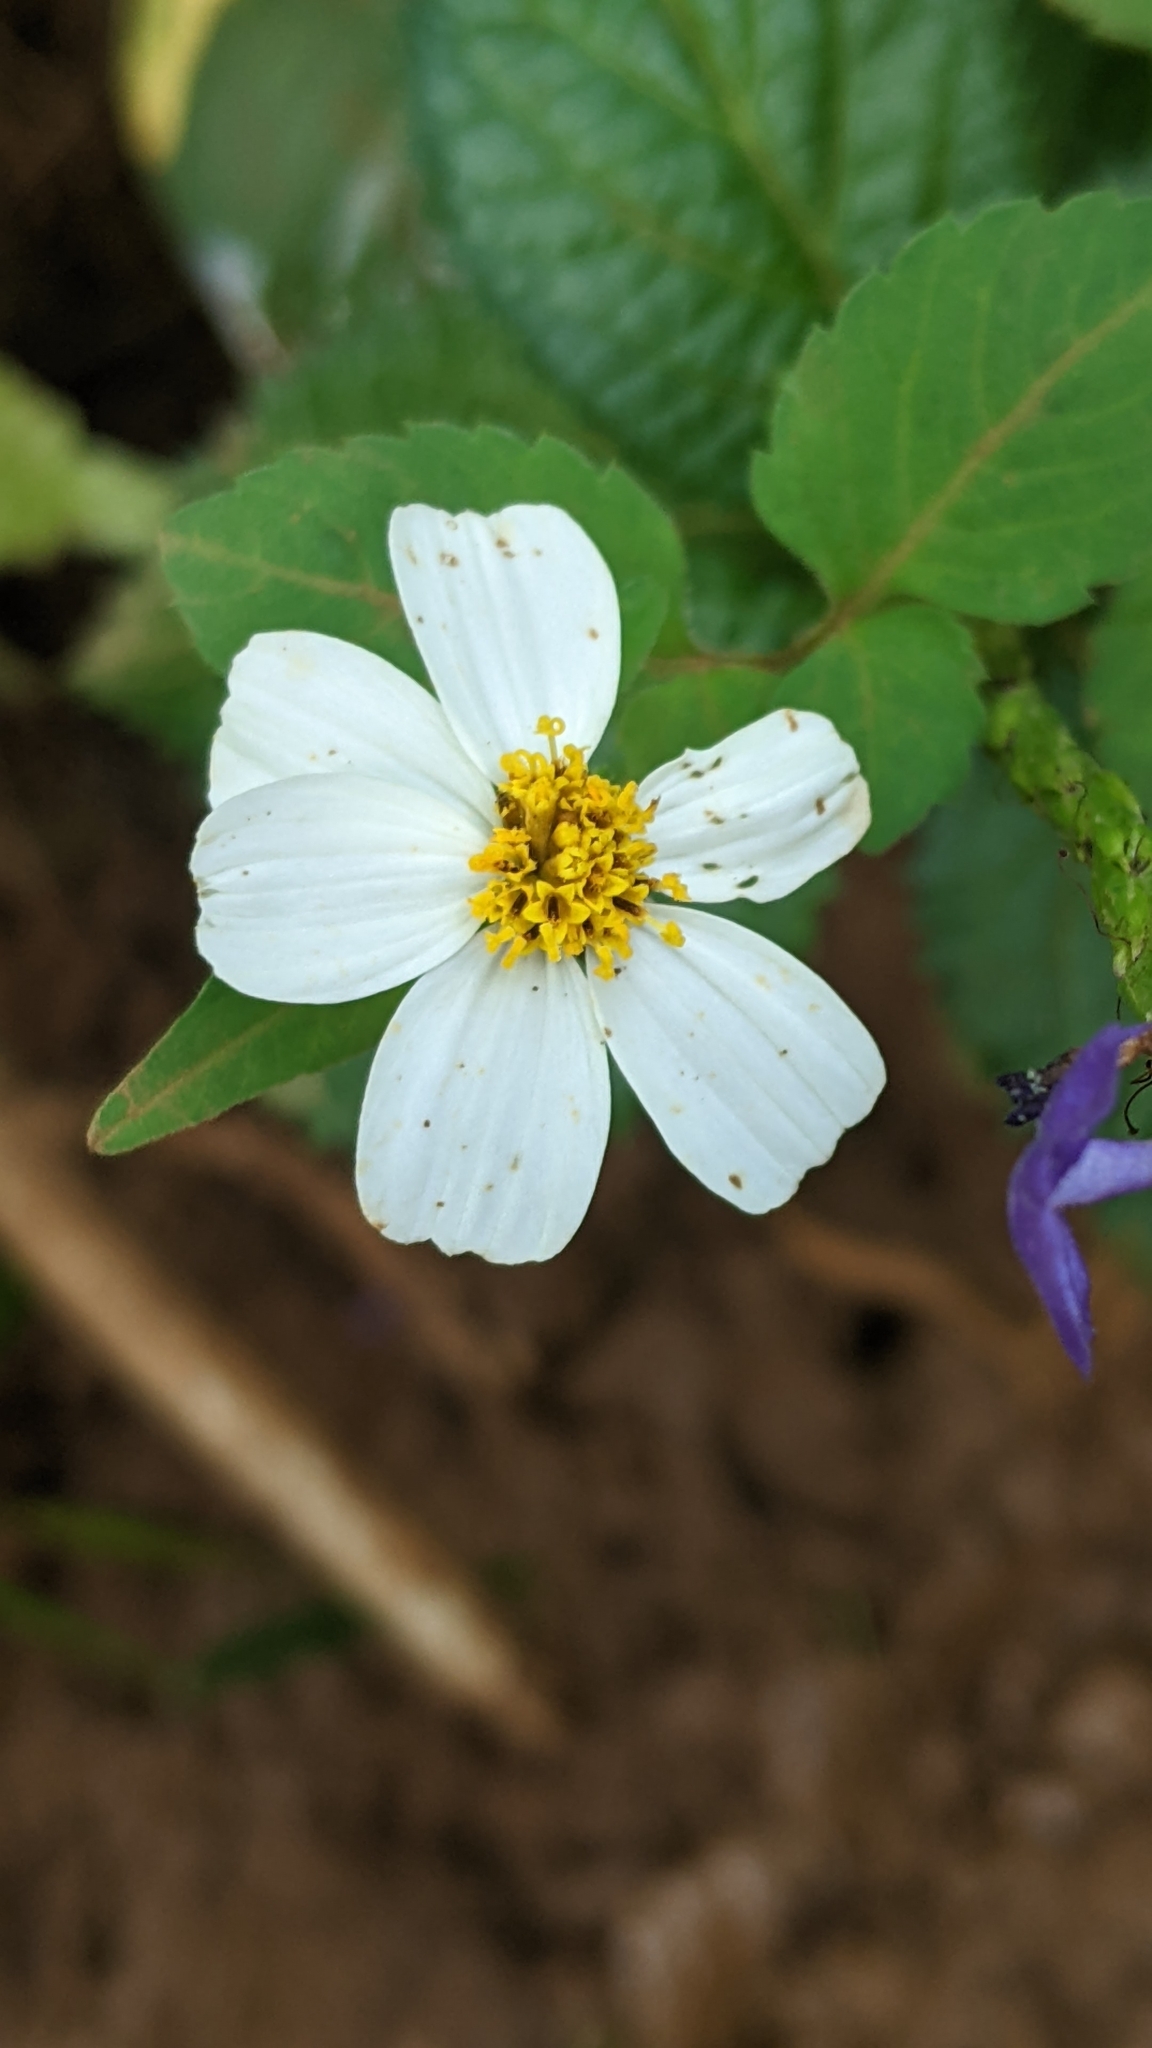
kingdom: Plantae
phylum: Tracheophyta
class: Magnoliopsida
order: Asterales
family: Asteraceae
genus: Bidens
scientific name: Bidens alba
